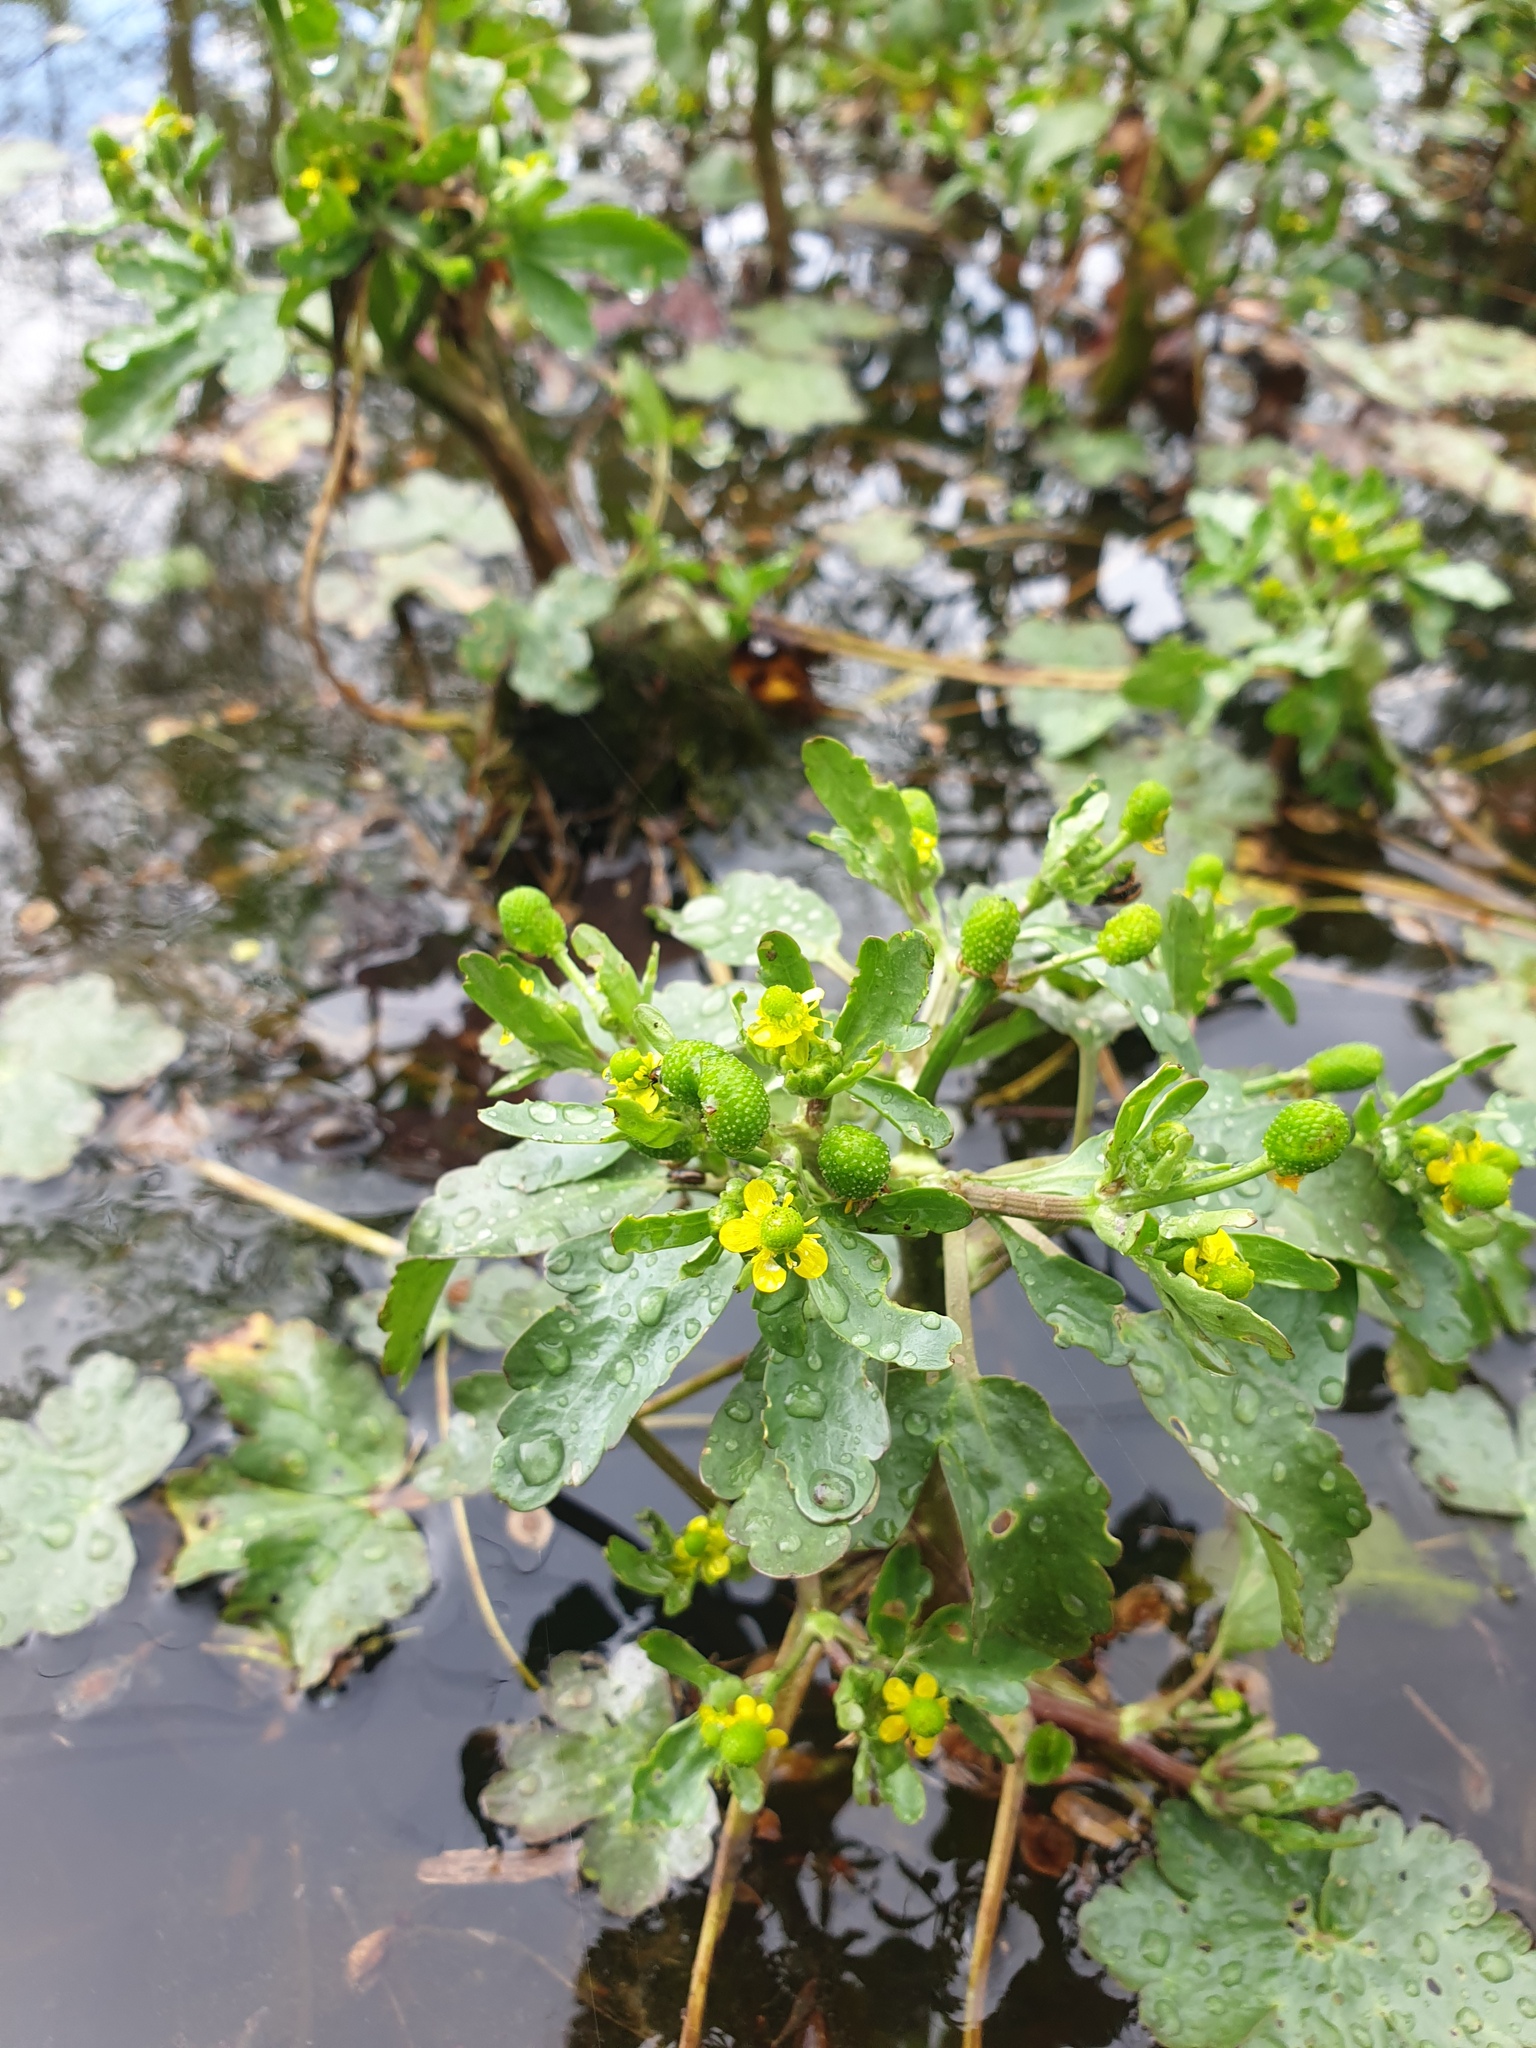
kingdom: Plantae
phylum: Tracheophyta
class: Magnoliopsida
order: Ranunculales
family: Ranunculaceae
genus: Ranunculus
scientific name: Ranunculus sceleratus
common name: Celery-leaved buttercup
